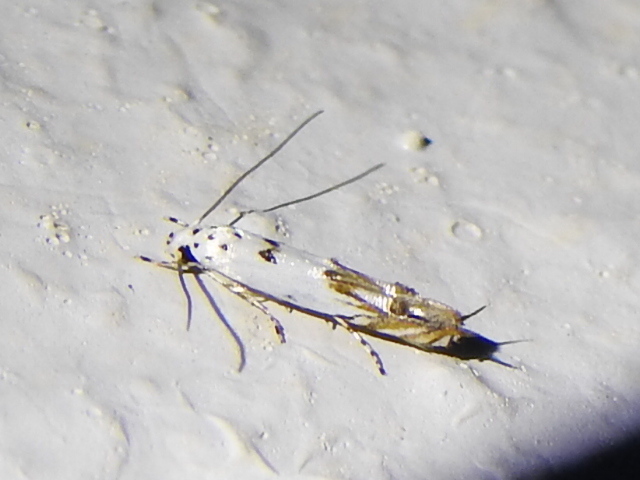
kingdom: Animalia
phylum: Arthropoda
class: Insecta
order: Lepidoptera
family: Momphidae
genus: Mompha
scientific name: Mompha eloisella
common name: Red-streaked mompha moth
